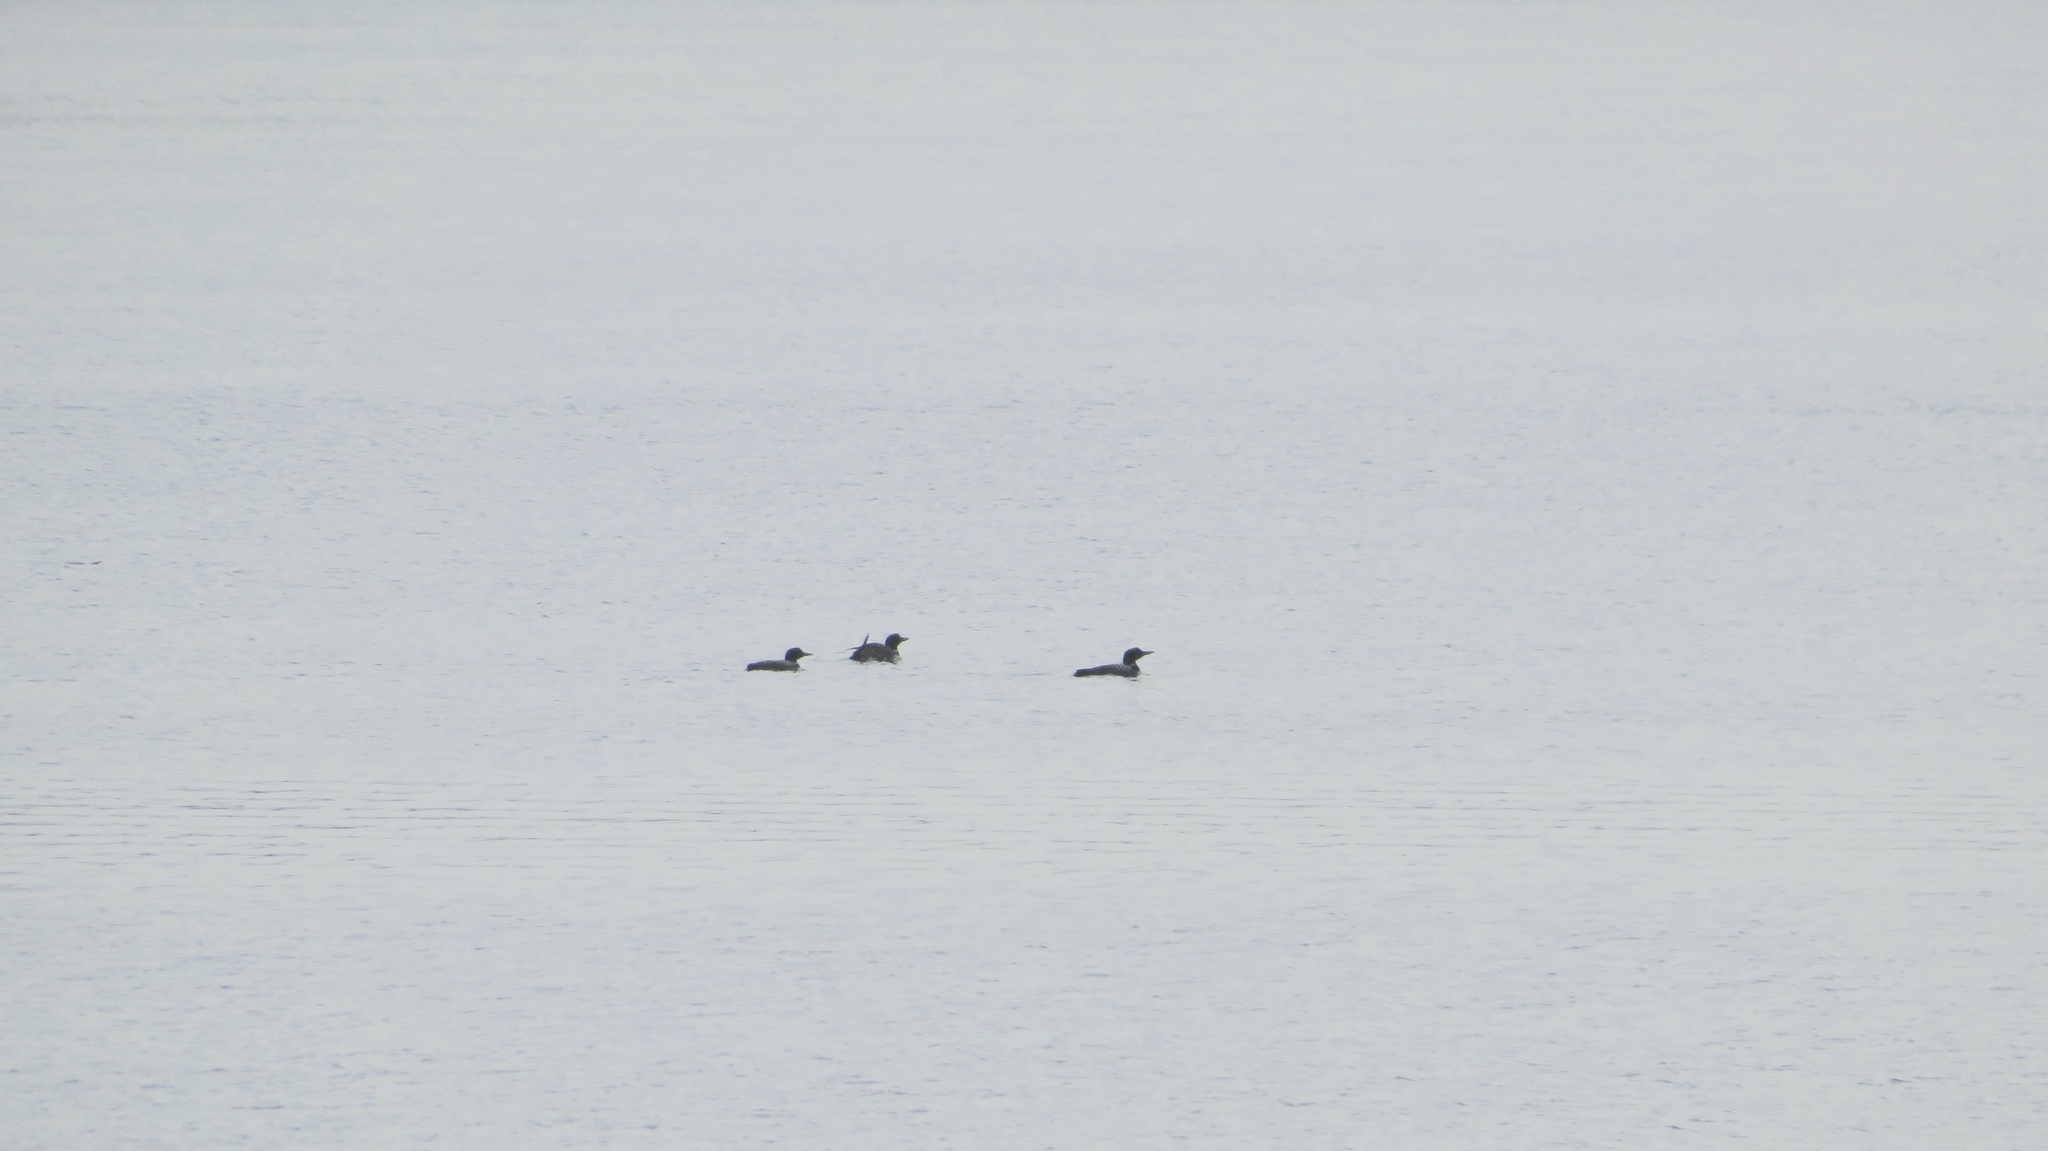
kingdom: Animalia
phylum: Chordata
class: Aves
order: Gaviiformes
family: Gaviidae
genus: Gavia
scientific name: Gavia immer
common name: Common loon
